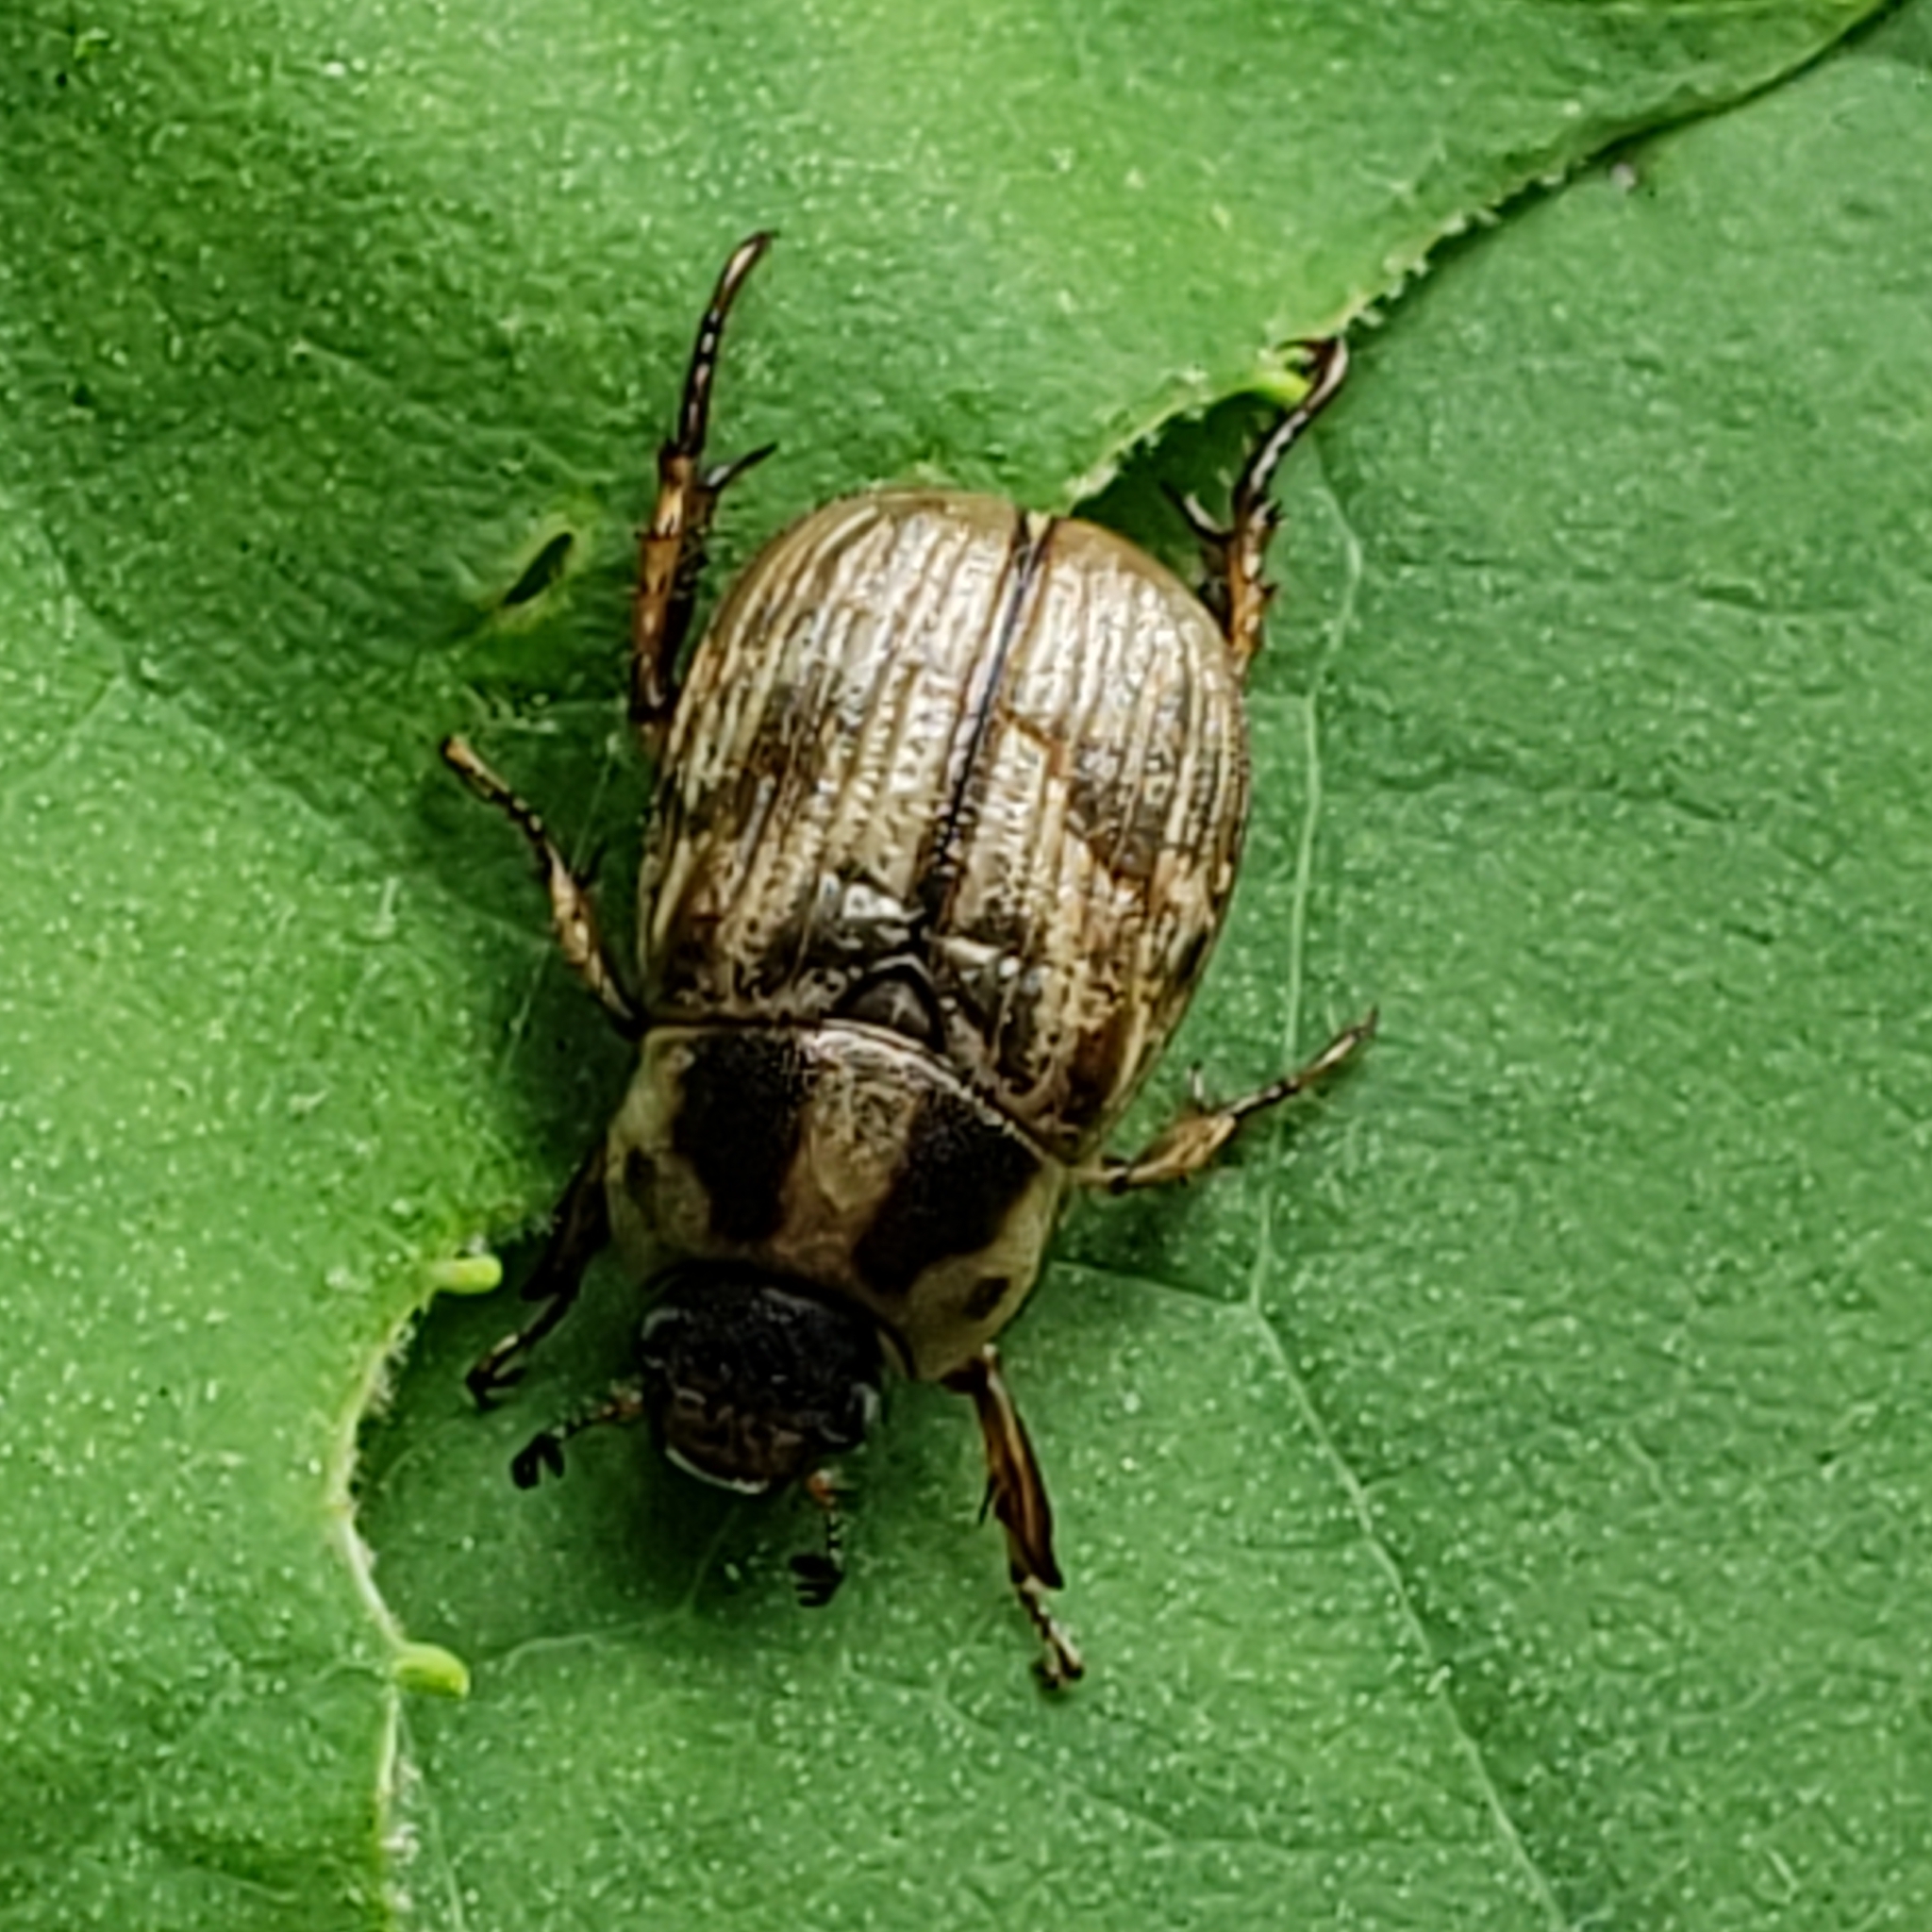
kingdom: Animalia
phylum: Arthropoda
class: Insecta
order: Coleoptera
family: Scarabaeidae
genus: Exomala
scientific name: Exomala orientalis
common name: Oriental beetle
